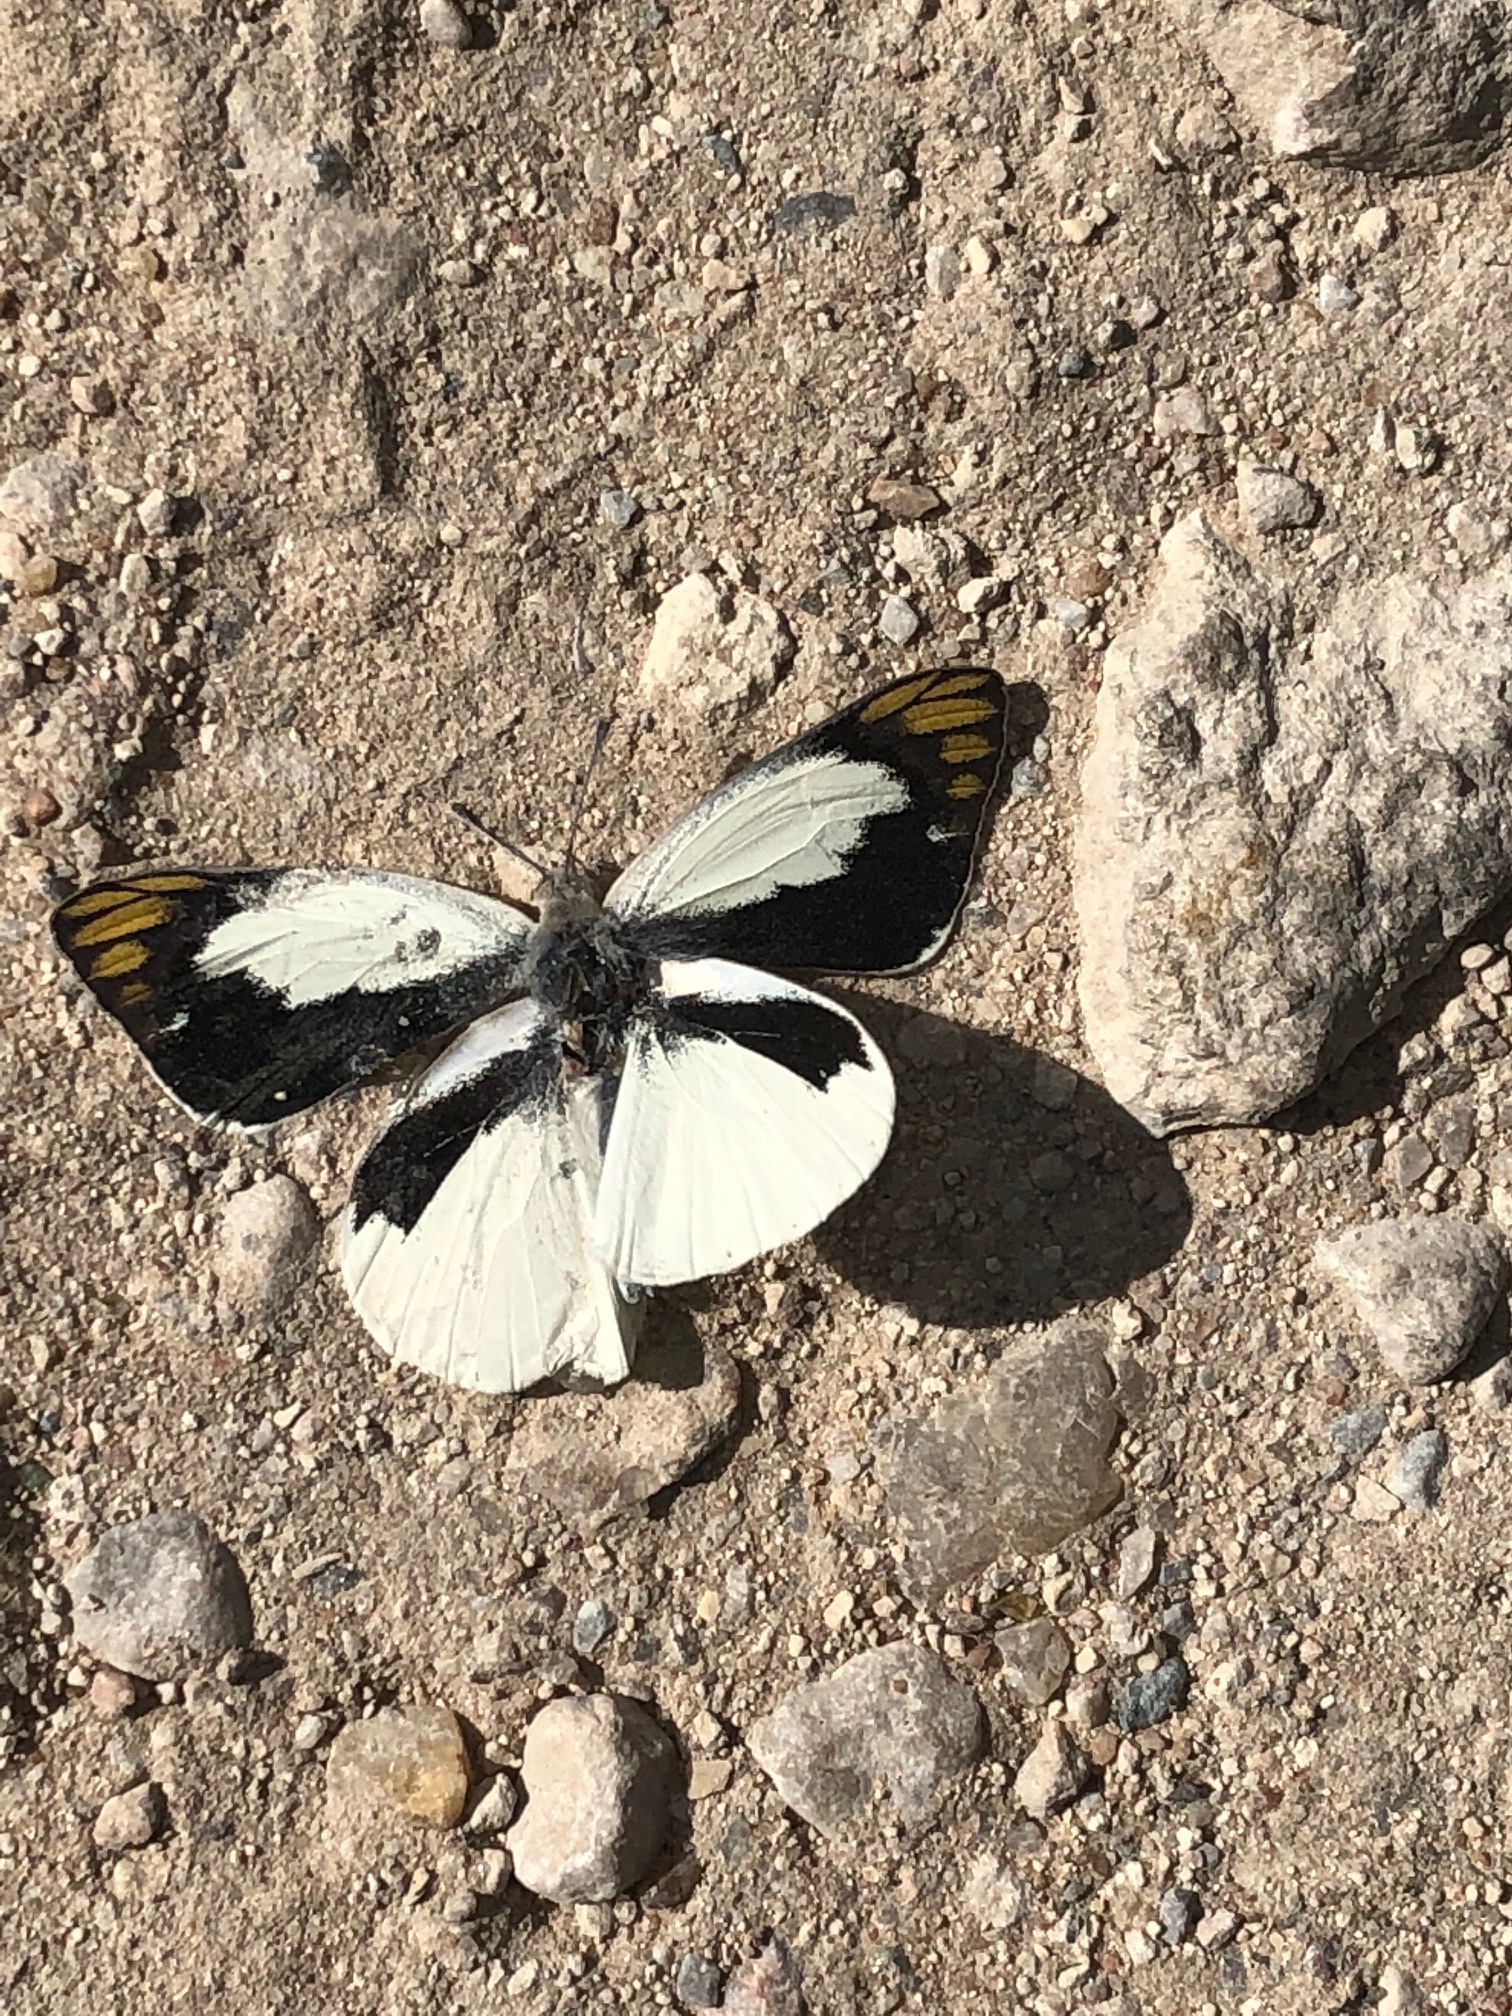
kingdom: Animalia
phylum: Arthropoda
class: Insecta
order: Lepidoptera
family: Pieridae
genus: Colotis
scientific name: Colotis eris
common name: Banded gold tip
